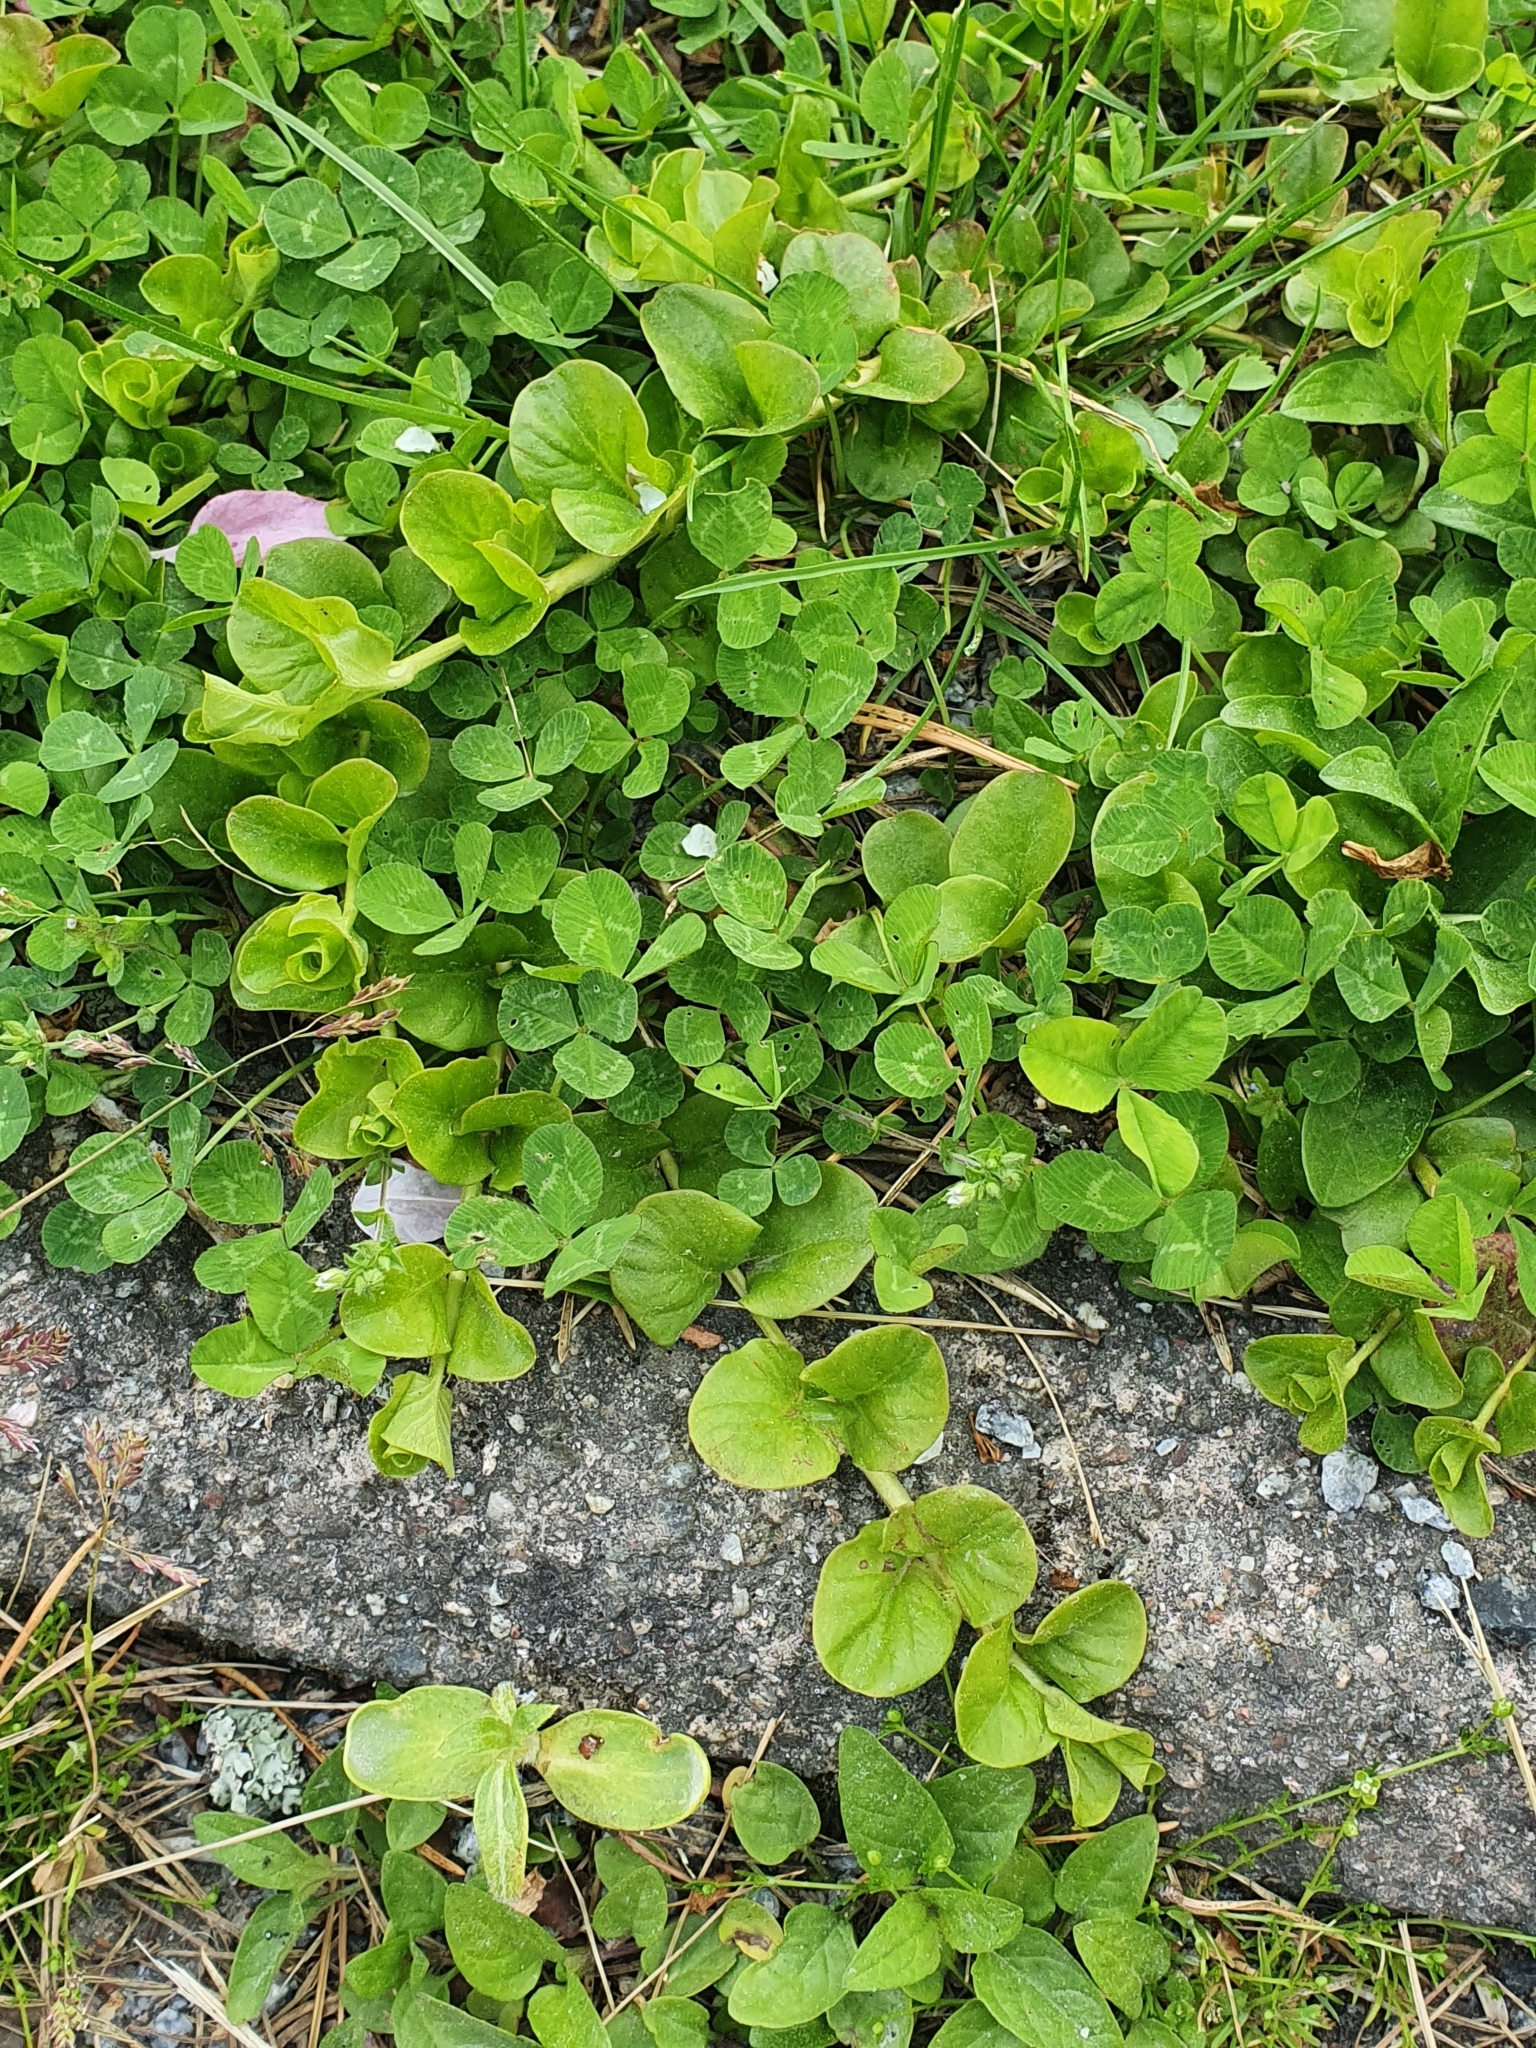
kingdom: Plantae
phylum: Tracheophyta
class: Magnoliopsida
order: Ericales
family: Primulaceae
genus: Lysimachia
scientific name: Lysimachia nummularia
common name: Moneywort
